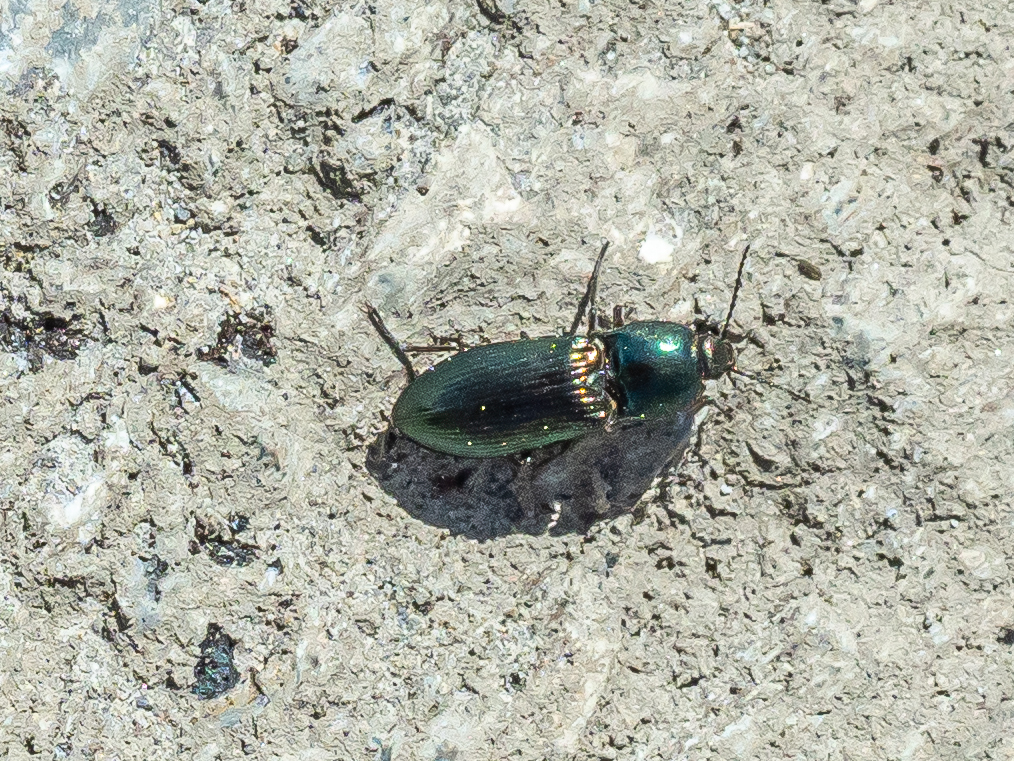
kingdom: Animalia
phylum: Arthropoda
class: Insecta
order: Coleoptera
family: Elateridae
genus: Selatosomus
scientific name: Selatosomus aeneus
